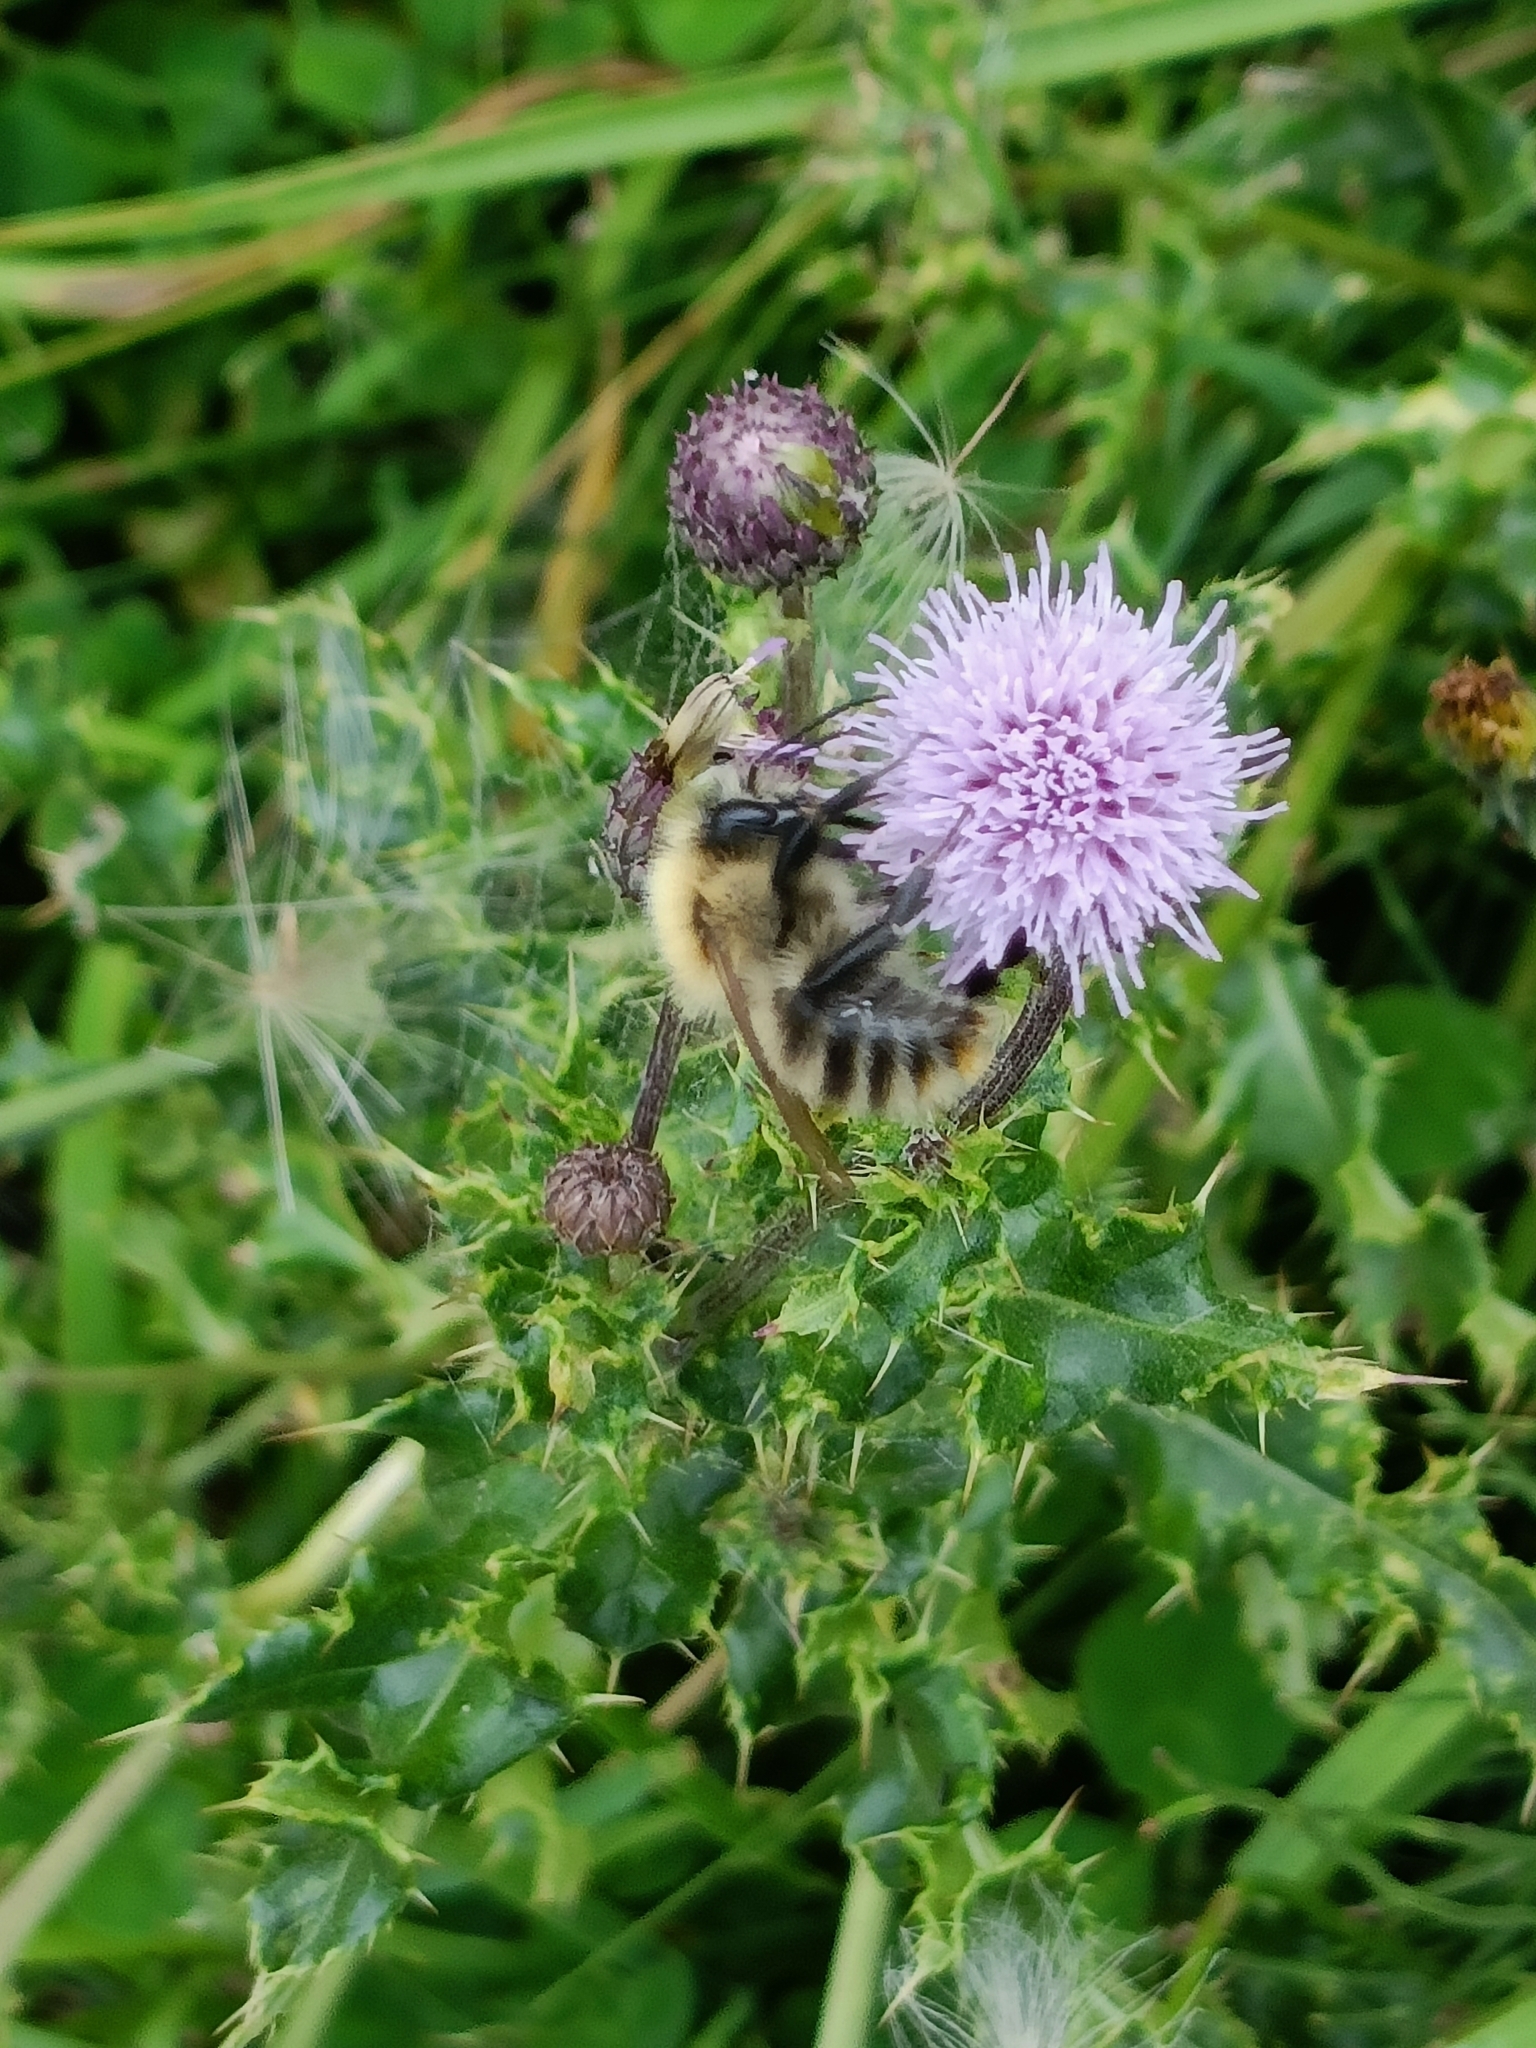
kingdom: Animalia
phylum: Arthropoda
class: Insecta
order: Hymenoptera
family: Apidae
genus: Bombus
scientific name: Bombus pascuorum
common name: Common carder bee
